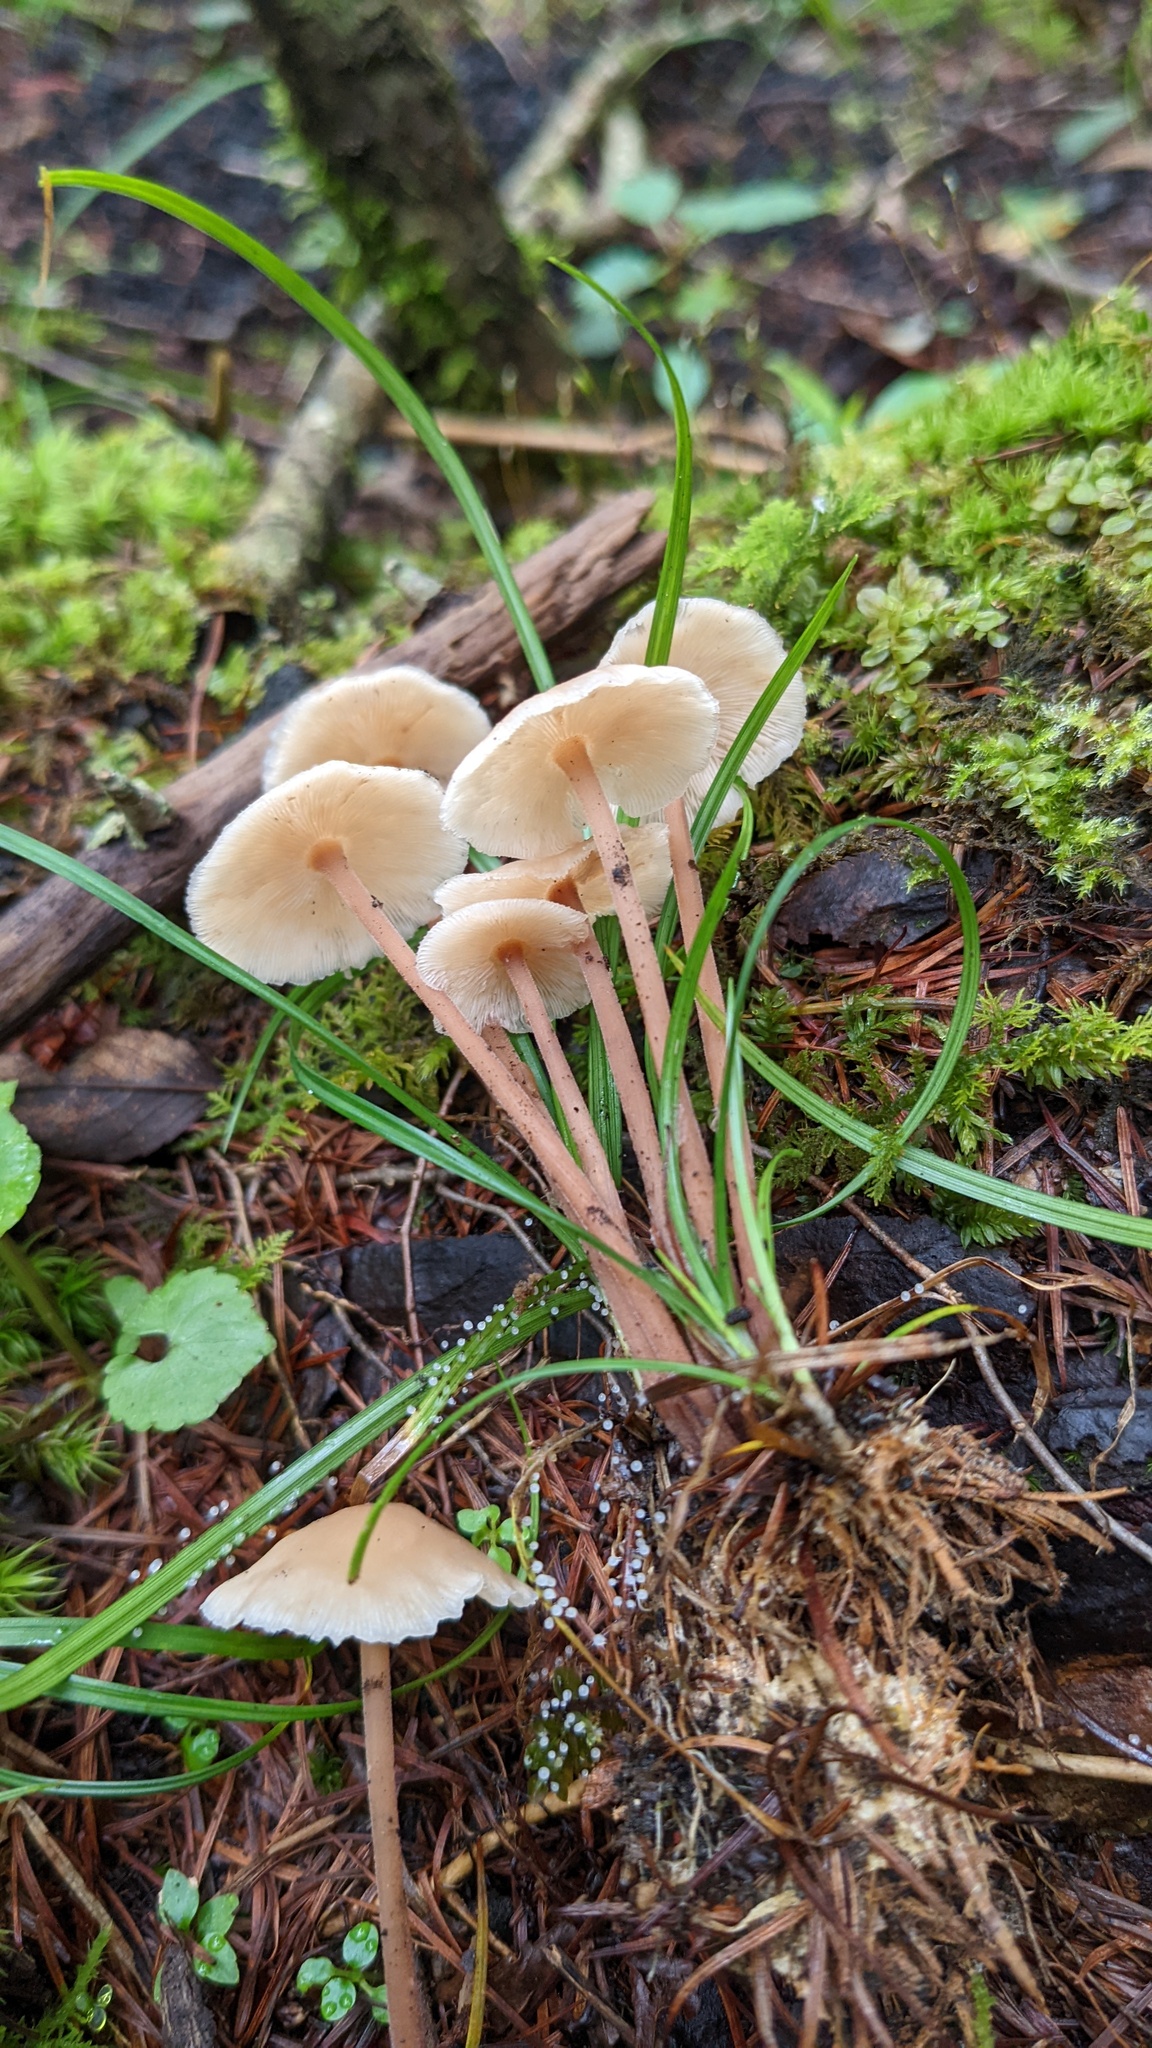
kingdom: Fungi
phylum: Basidiomycota
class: Agaricomycetes
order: Agaricales
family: Omphalotaceae
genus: Collybiopsis
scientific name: Collybiopsis confluens
